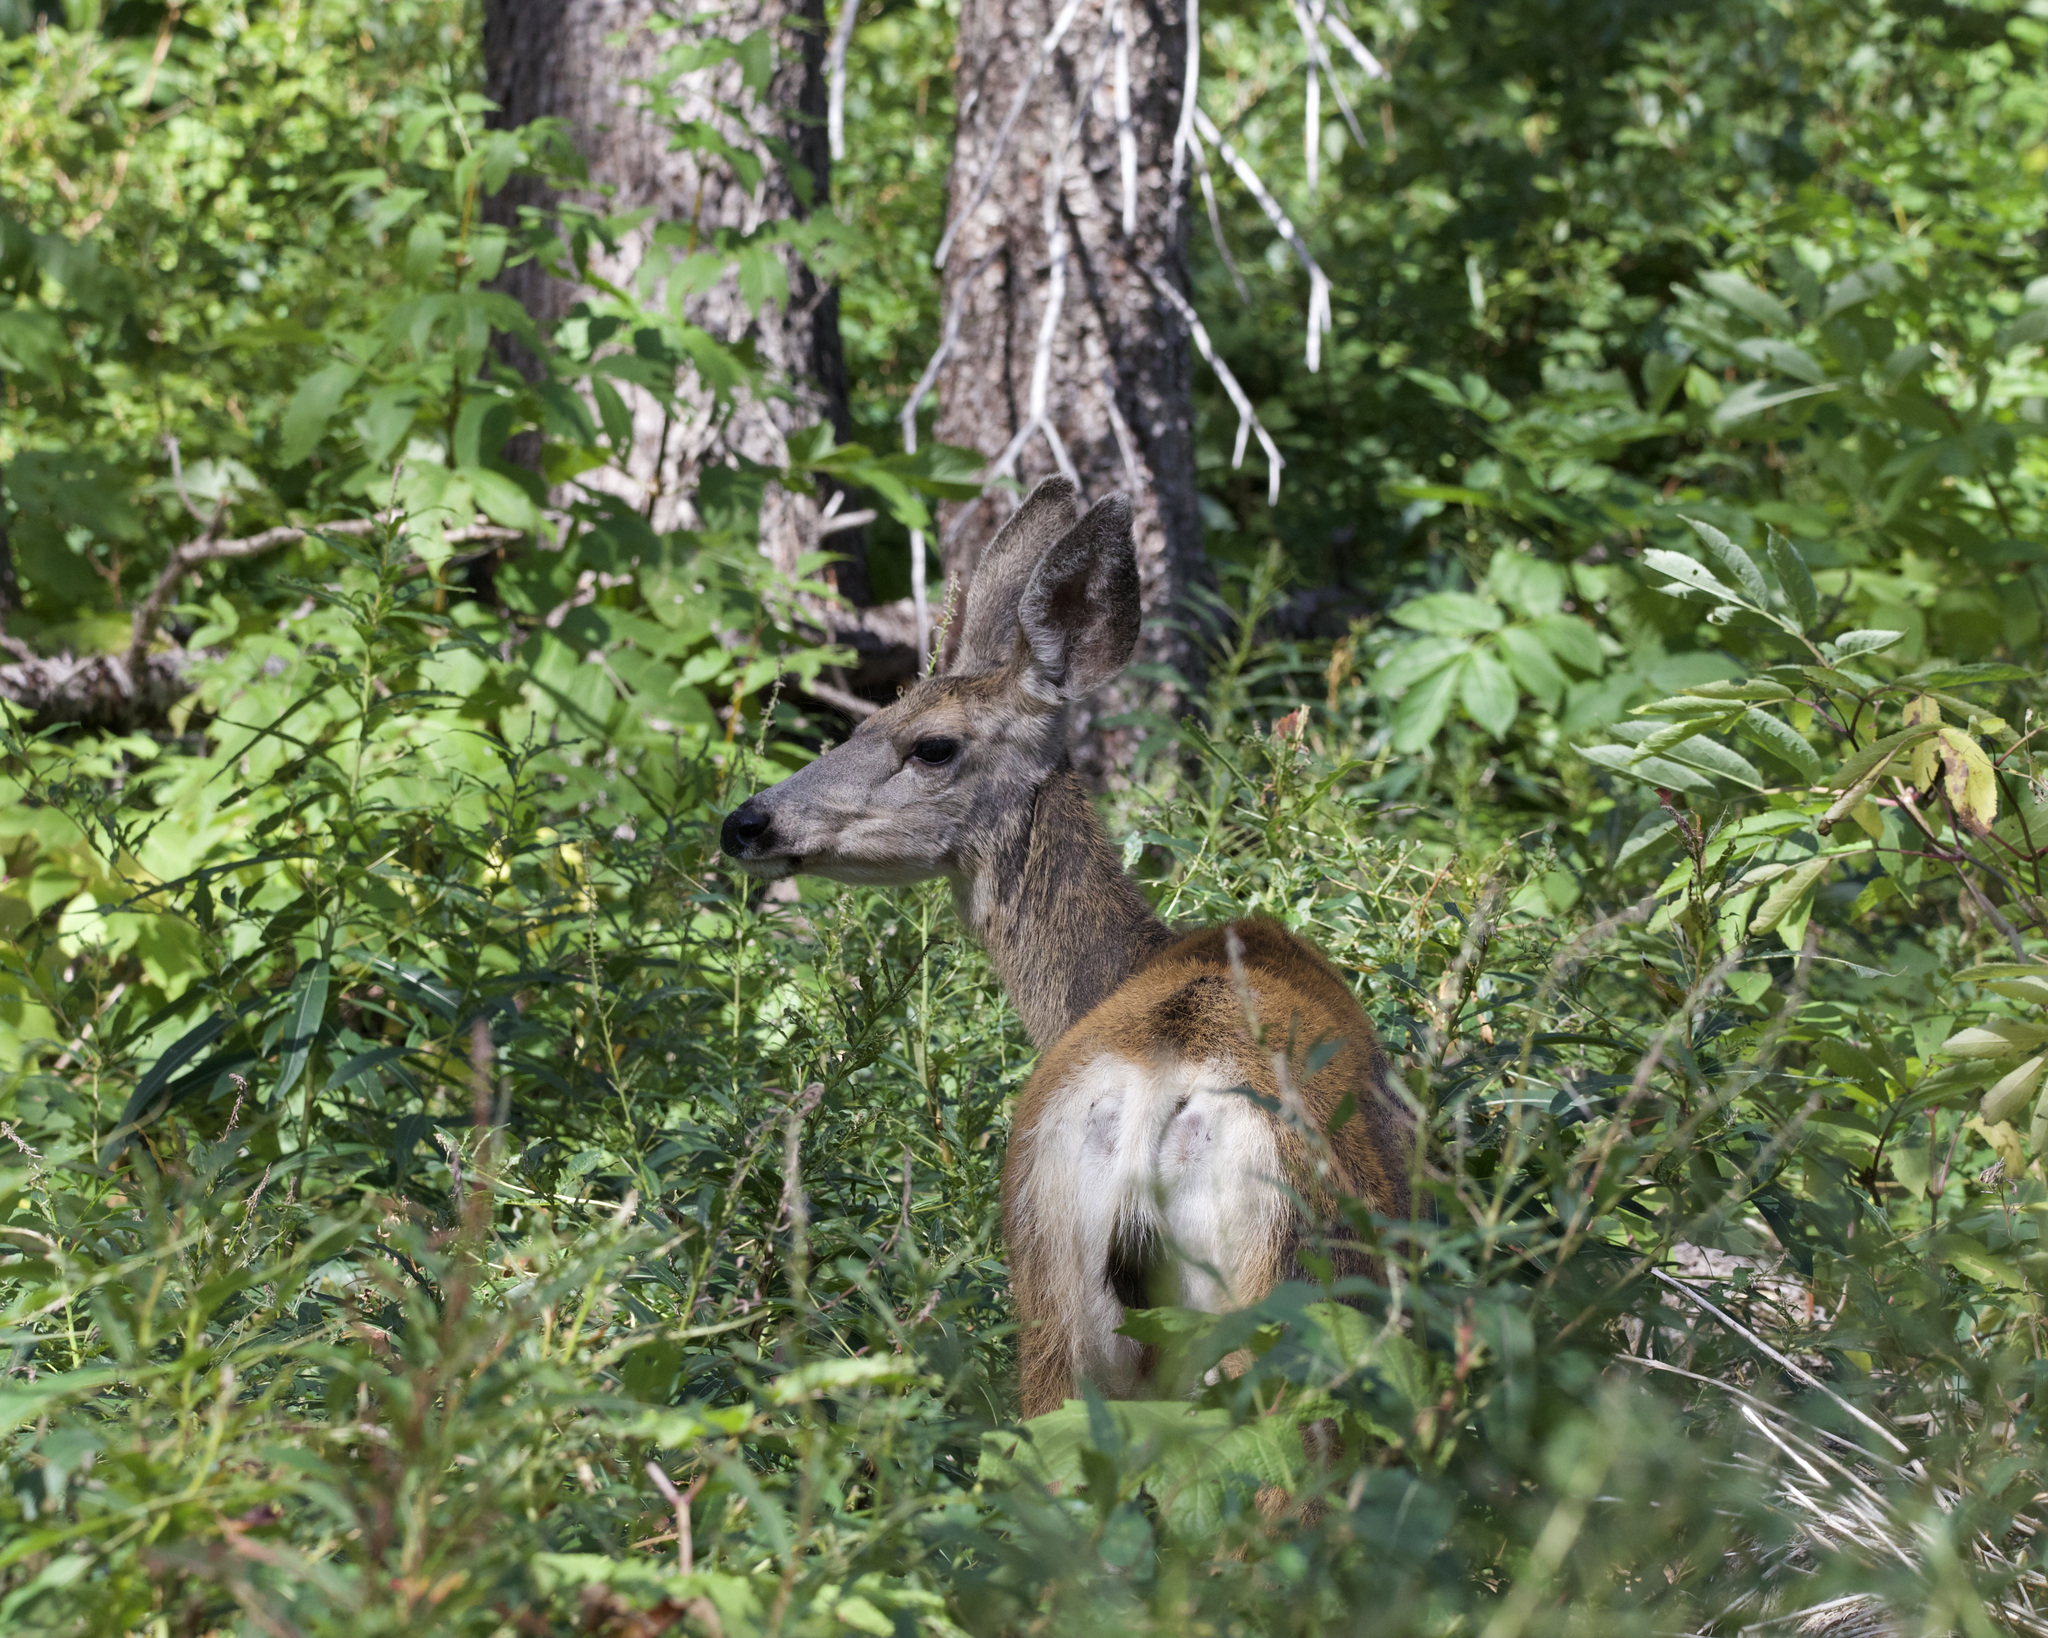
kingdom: Animalia
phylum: Chordata
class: Mammalia
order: Artiodactyla
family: Cervidae
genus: Odocoileus
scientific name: Odocoileus hemionus
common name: Mule deer
